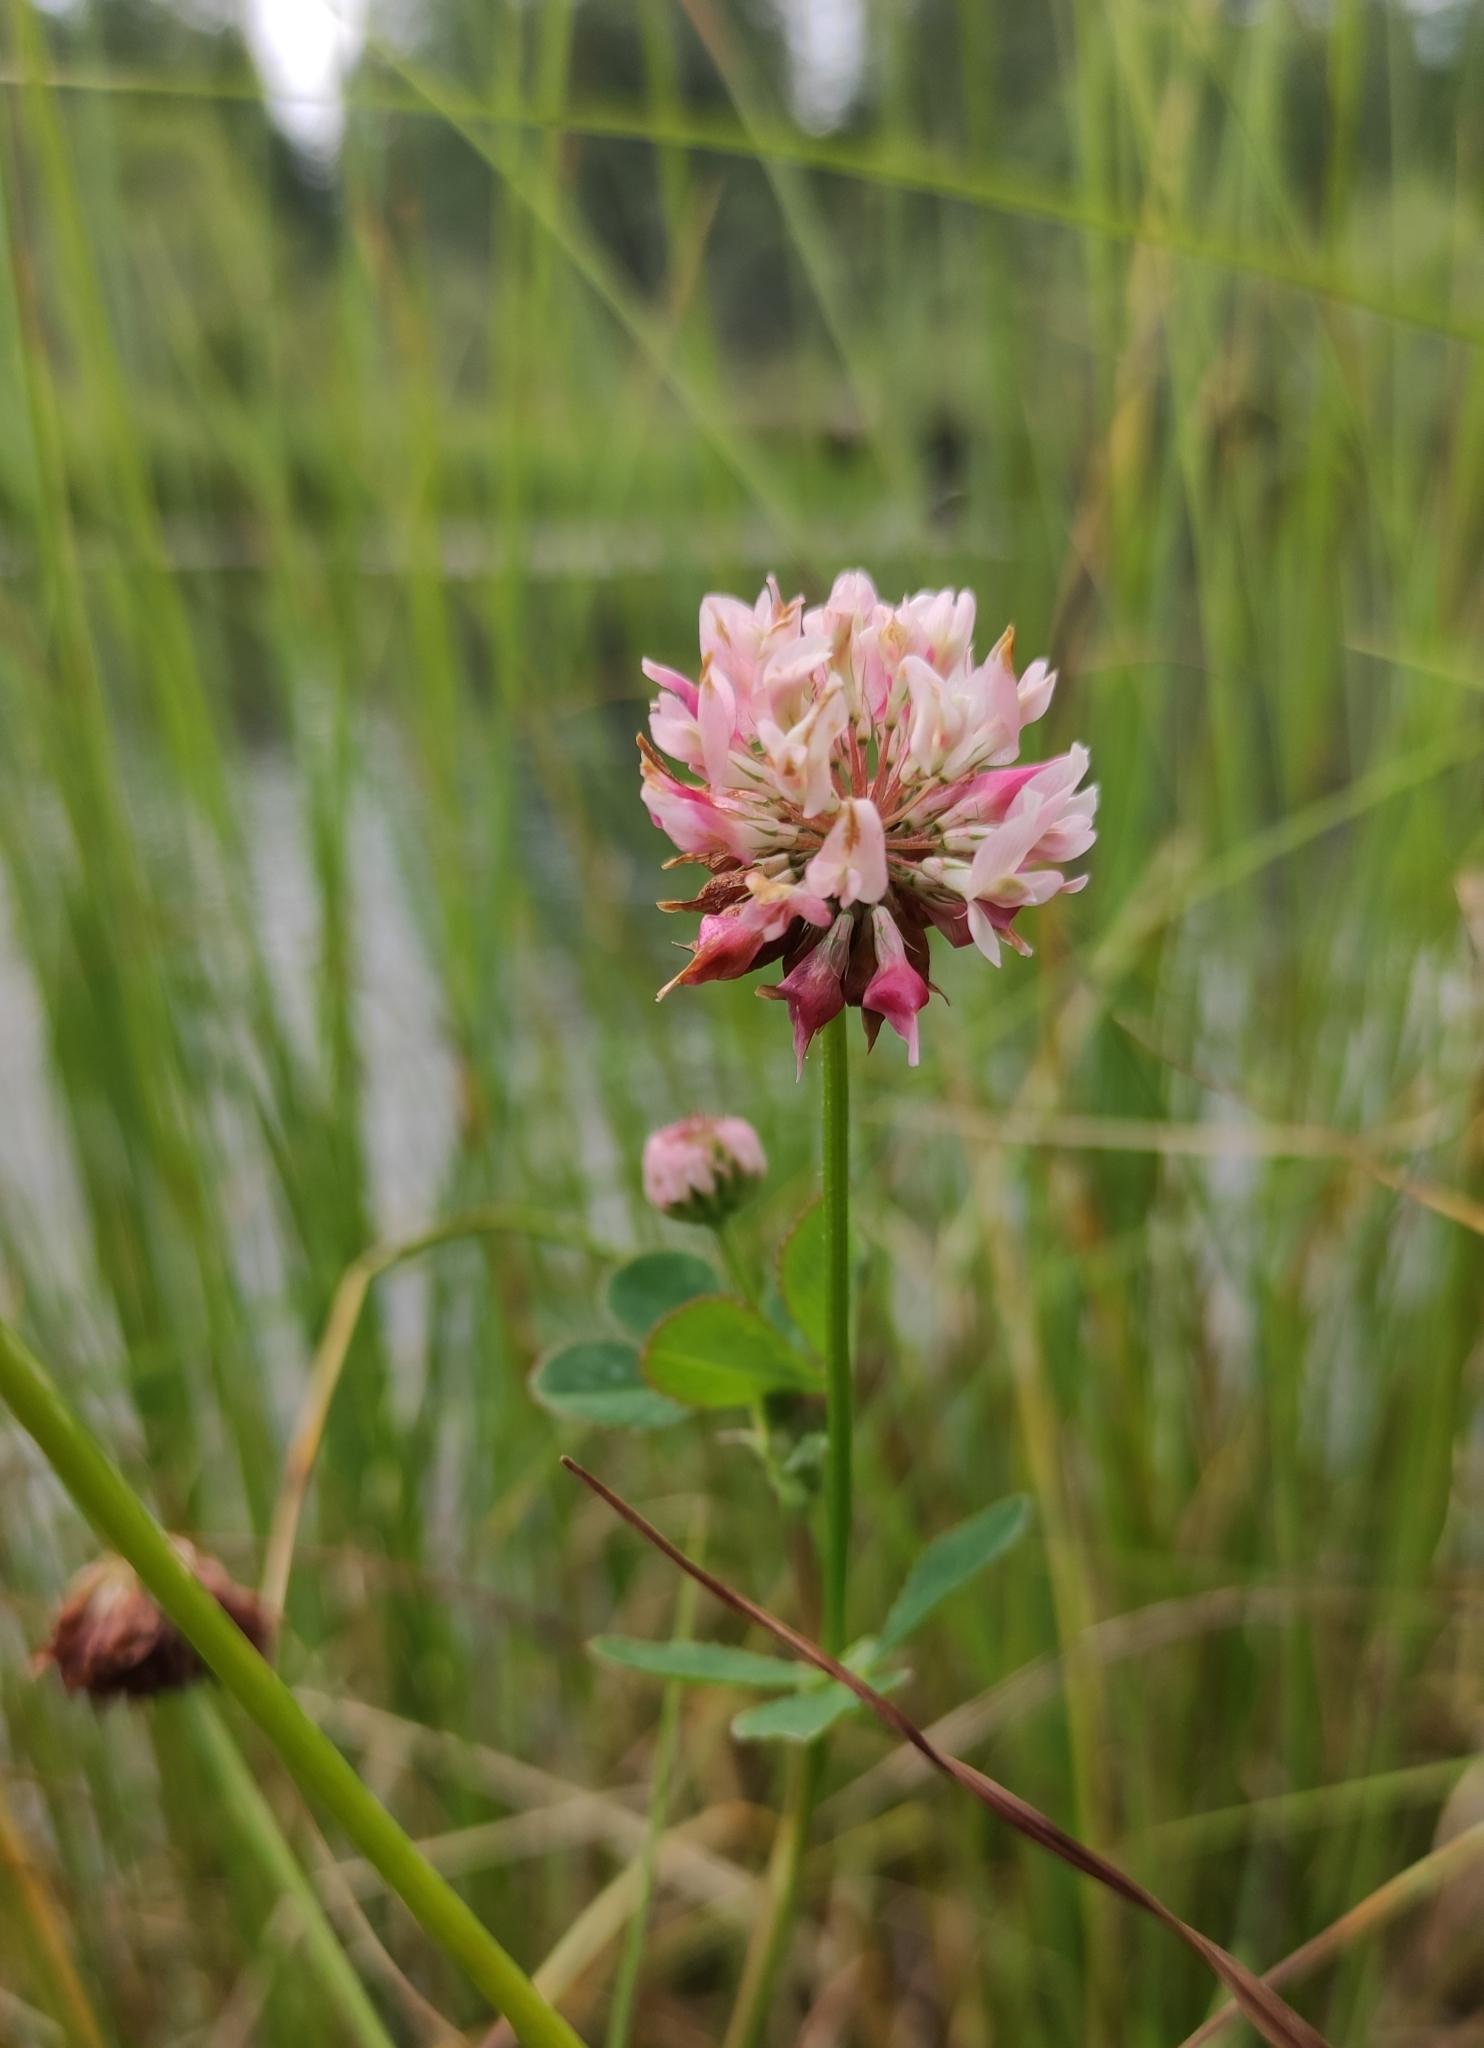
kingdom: Plantae
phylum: Tracheophyta
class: Magnoliopsida
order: Fabales
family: Fabaceae
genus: Trifolium
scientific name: Trifolium hybridum
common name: Alsike clover
